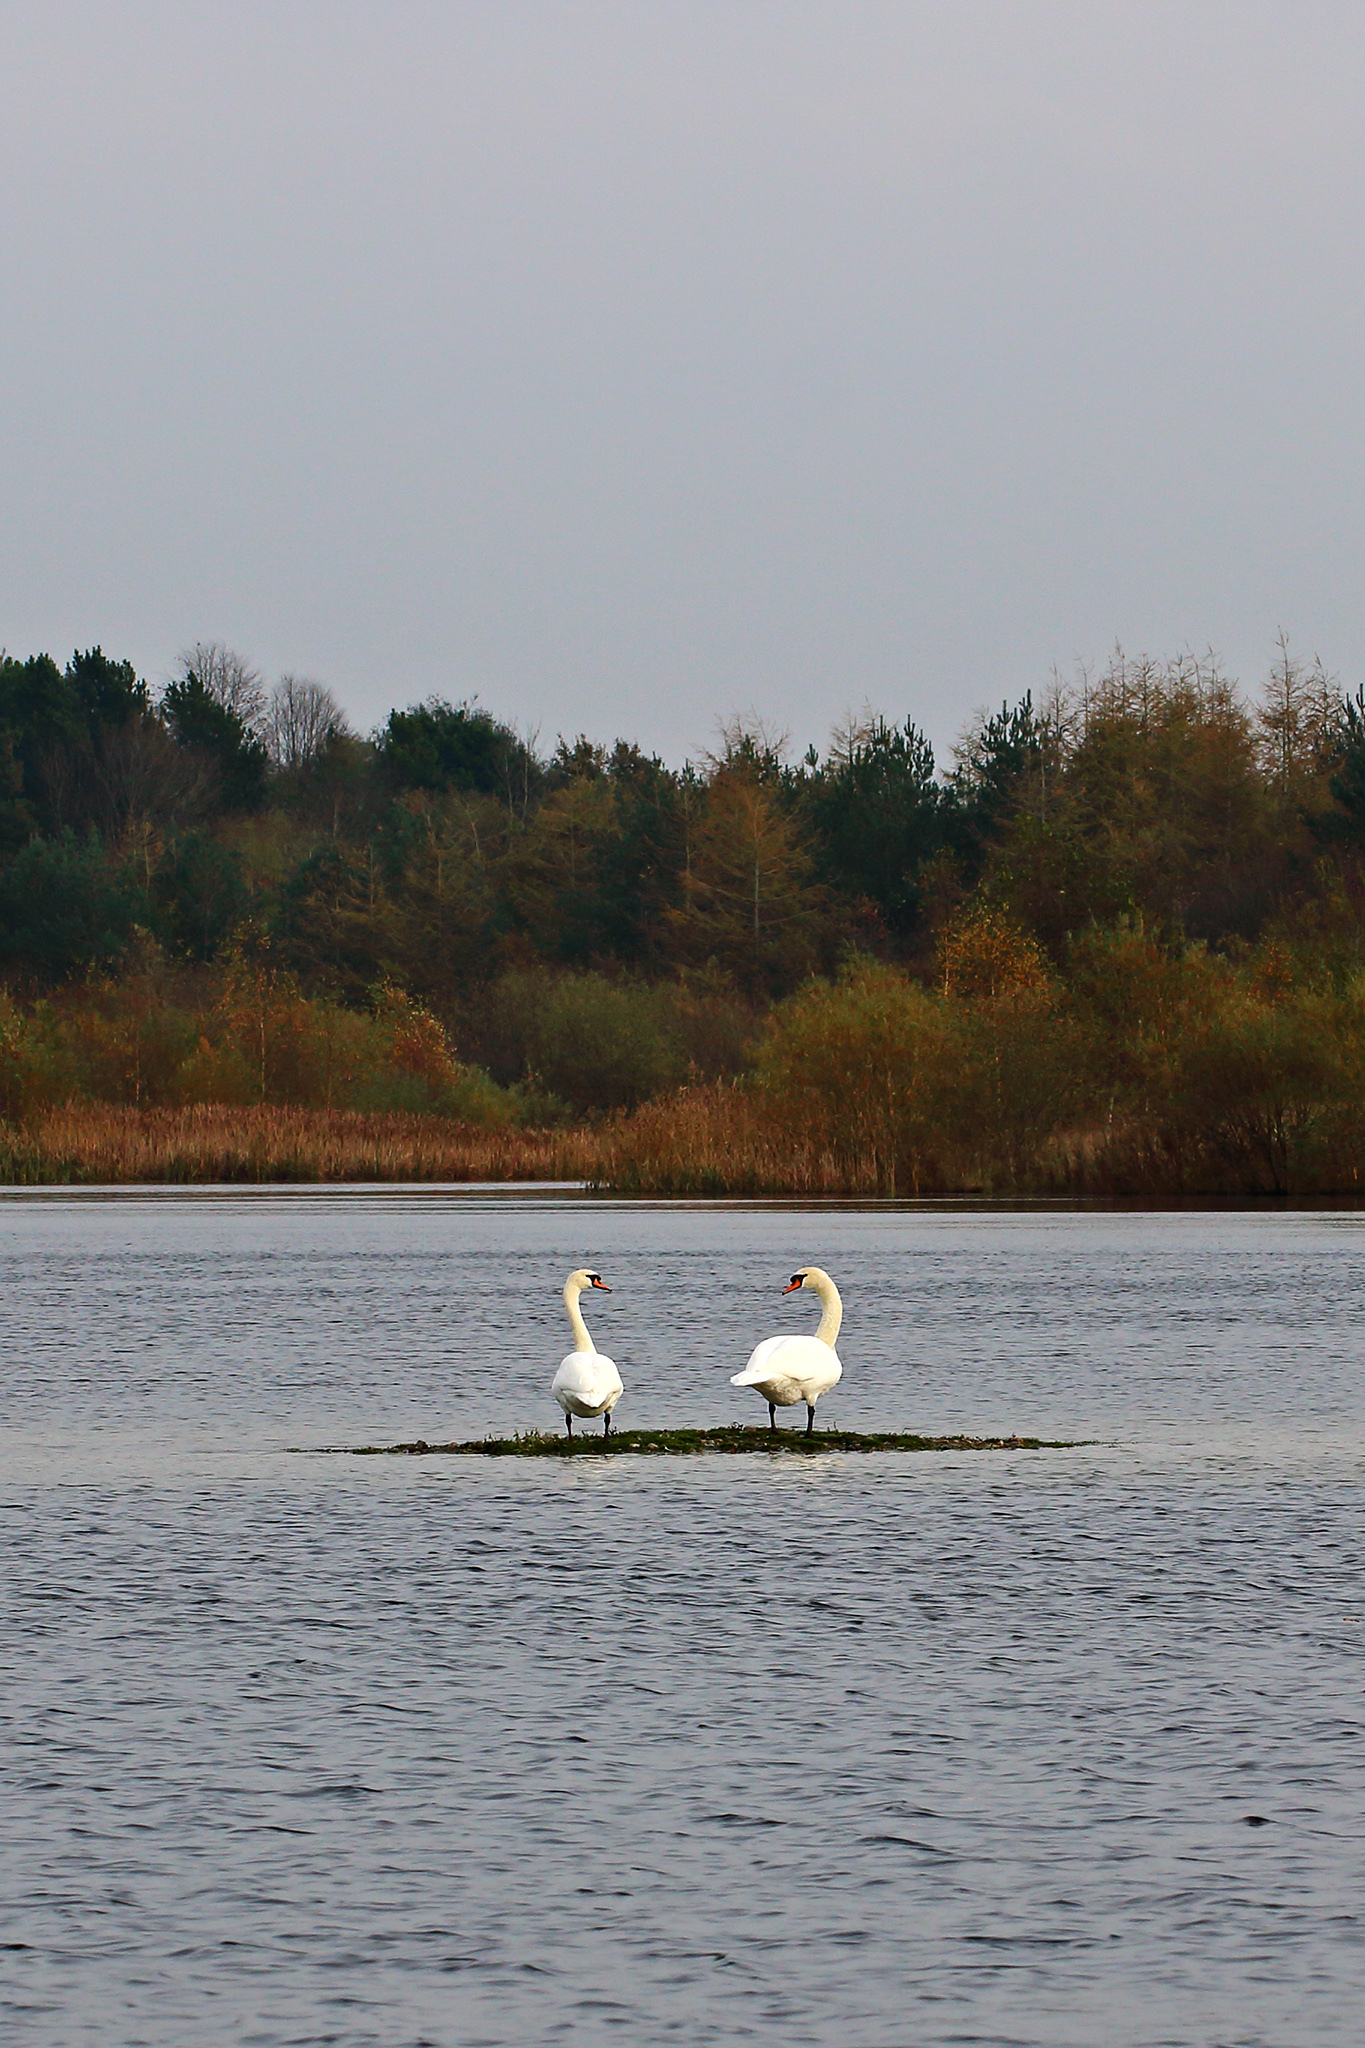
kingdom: Animalia
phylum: Chordata
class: Aves
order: Anseriformes
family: Anatidae
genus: Cygnus
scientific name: Cygnus olor
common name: Mute swan
